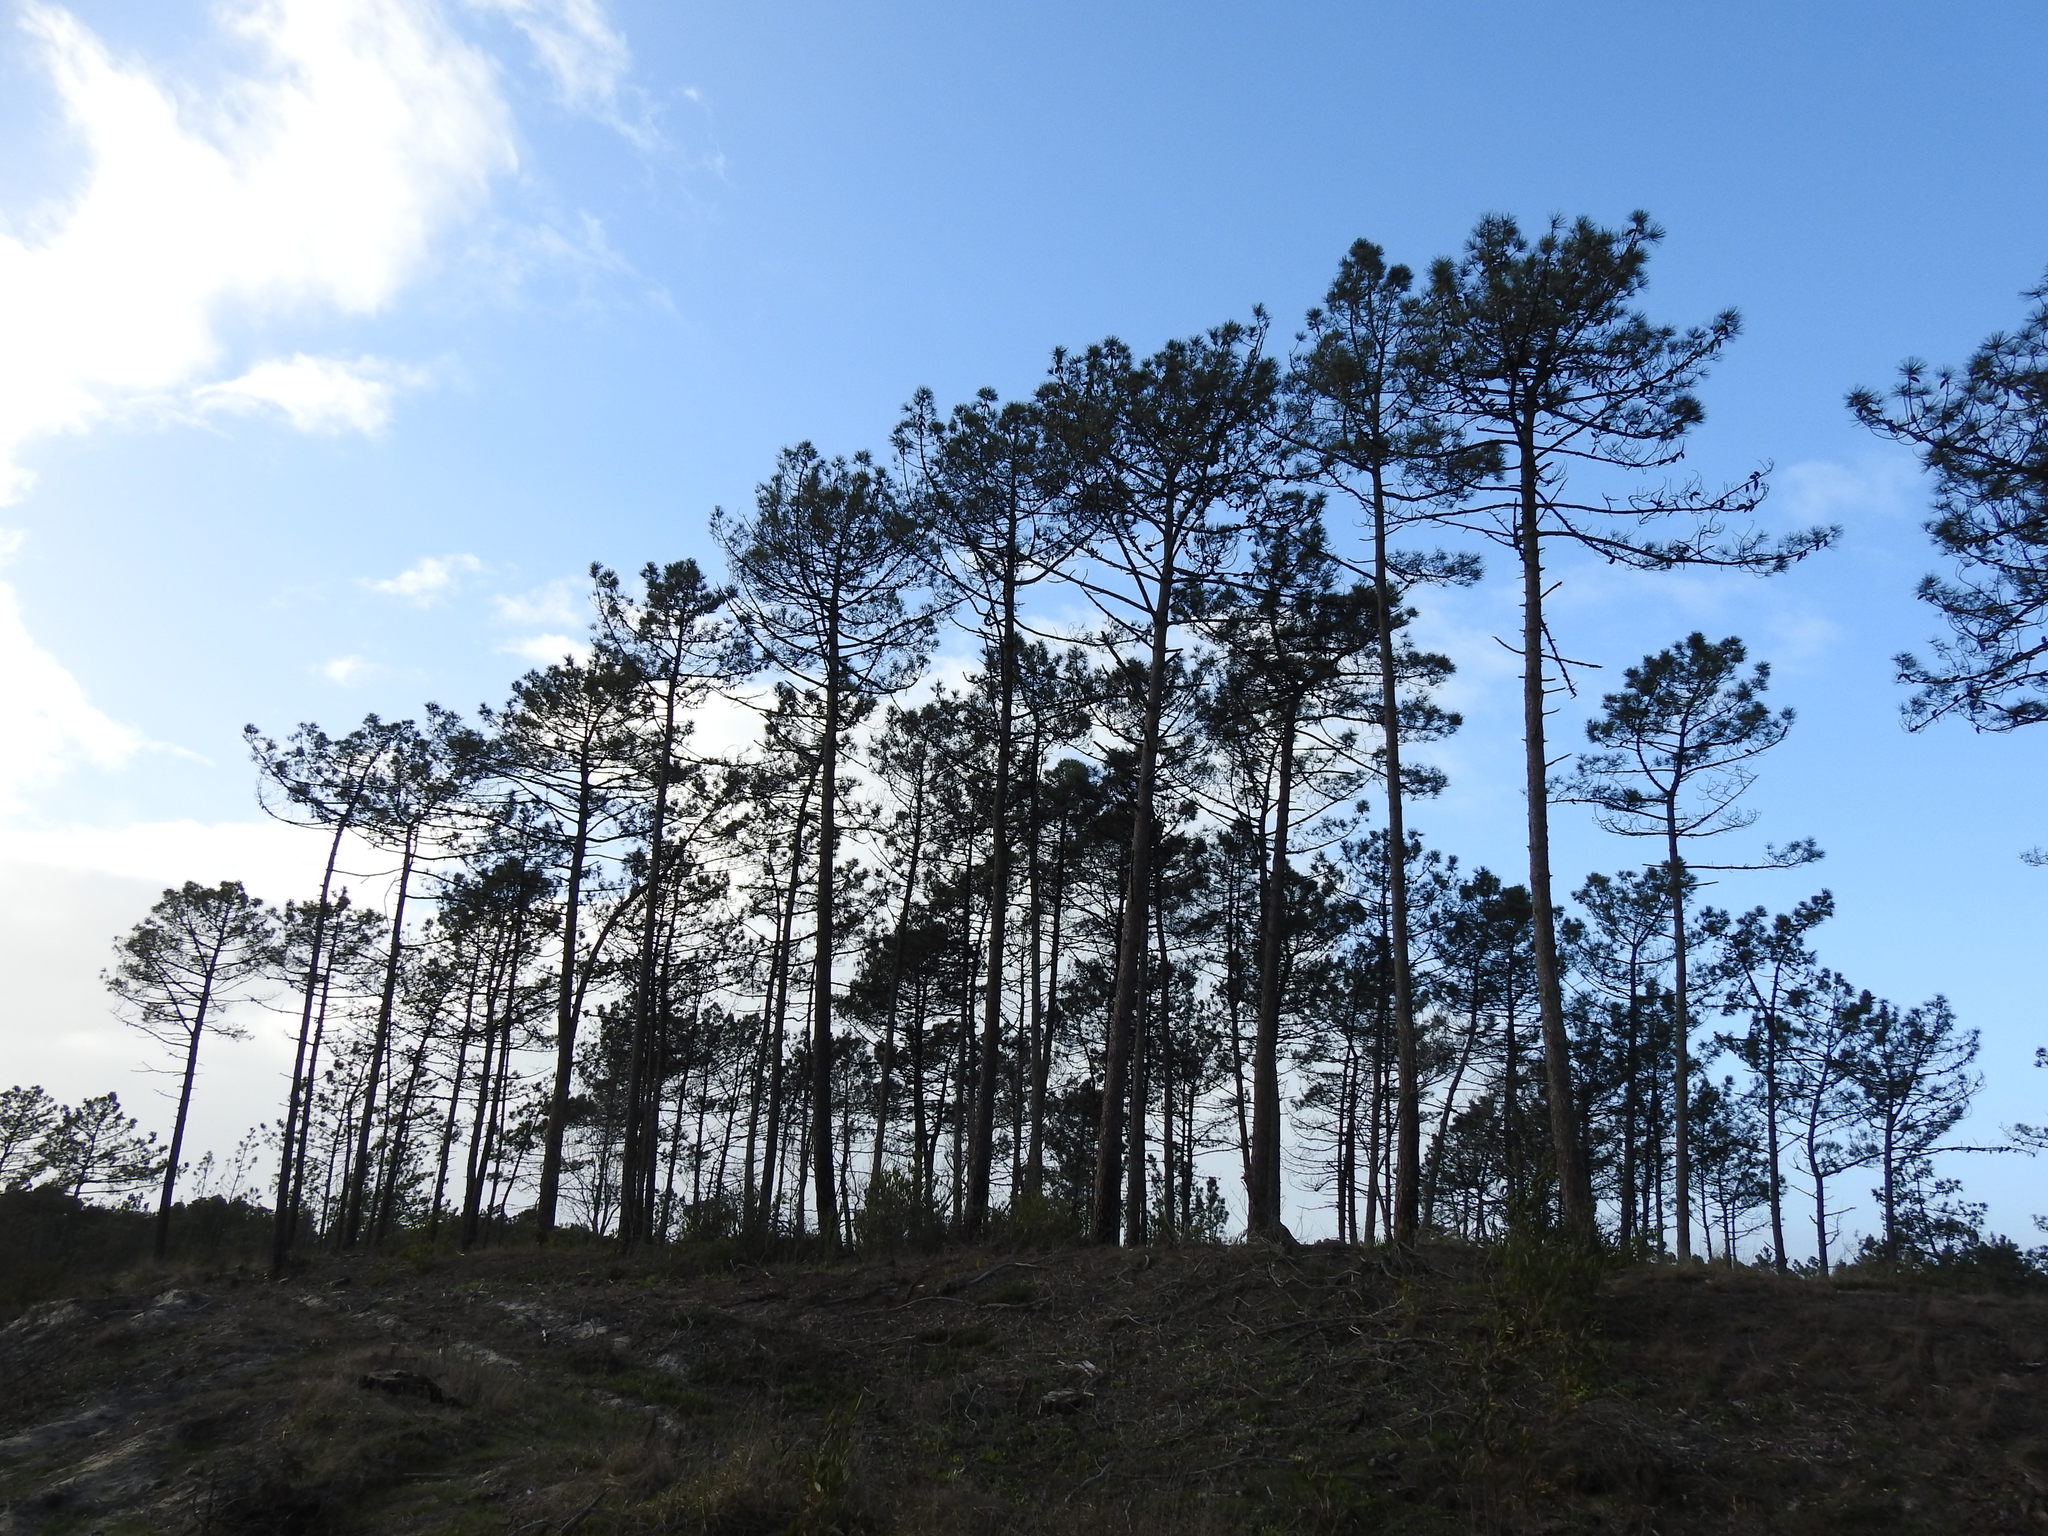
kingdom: Plantae
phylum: Tracheophyta
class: Pinopsida
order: Pinales
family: Pinaceae
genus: Pinus
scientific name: Pinus pinaster
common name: Maritime pine
